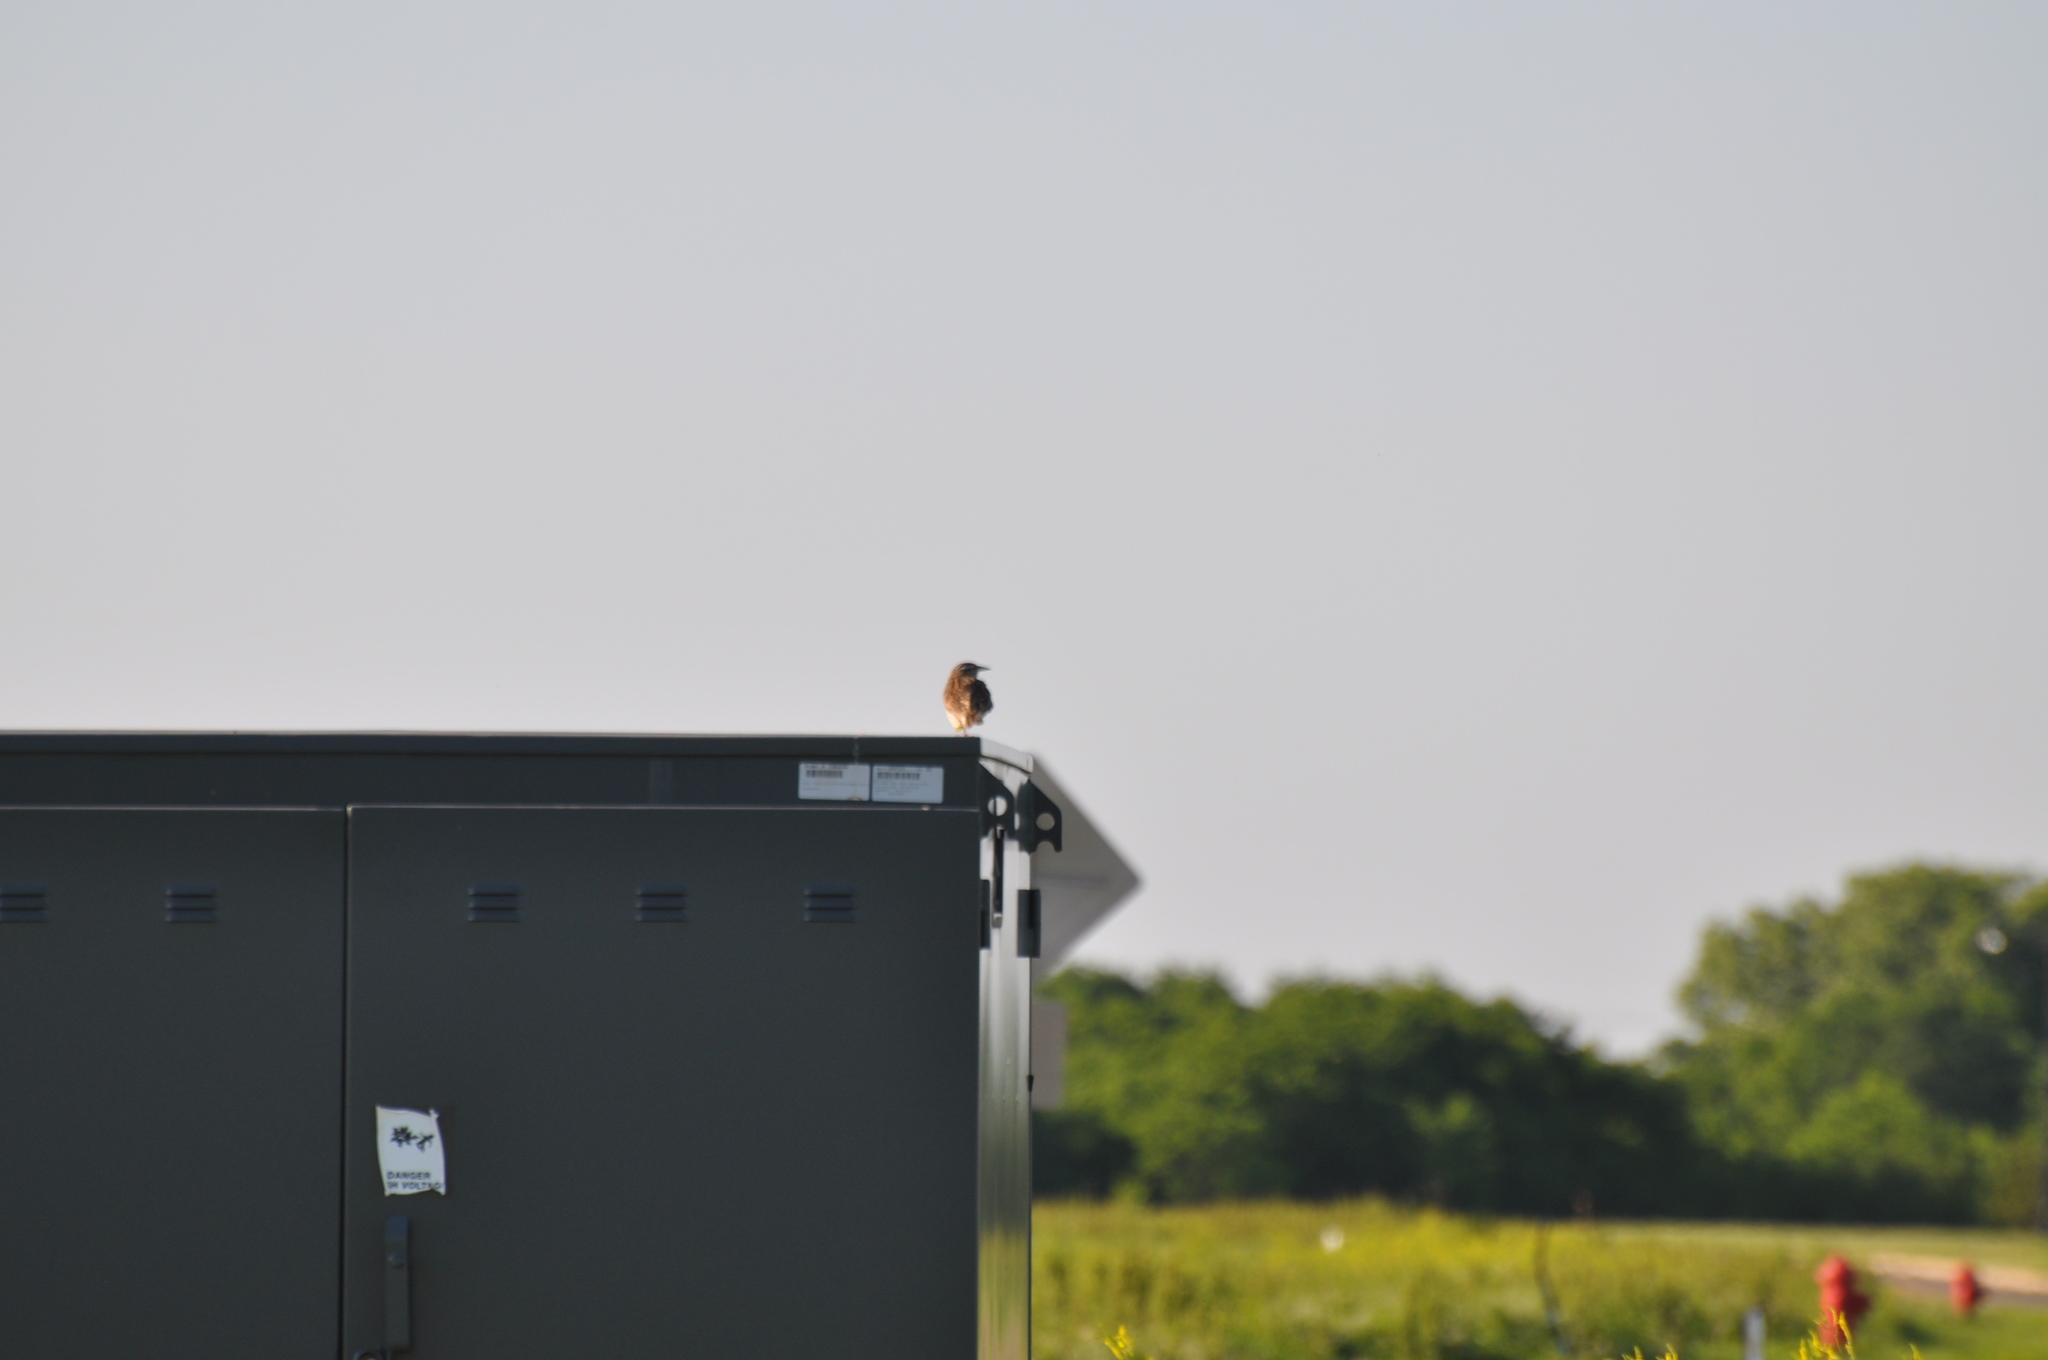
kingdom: Animalia
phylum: Chordata
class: Aves
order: Passeriformes
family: Icteridae
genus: Sturnella
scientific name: Sturnella magna
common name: Eastern meadowlark
